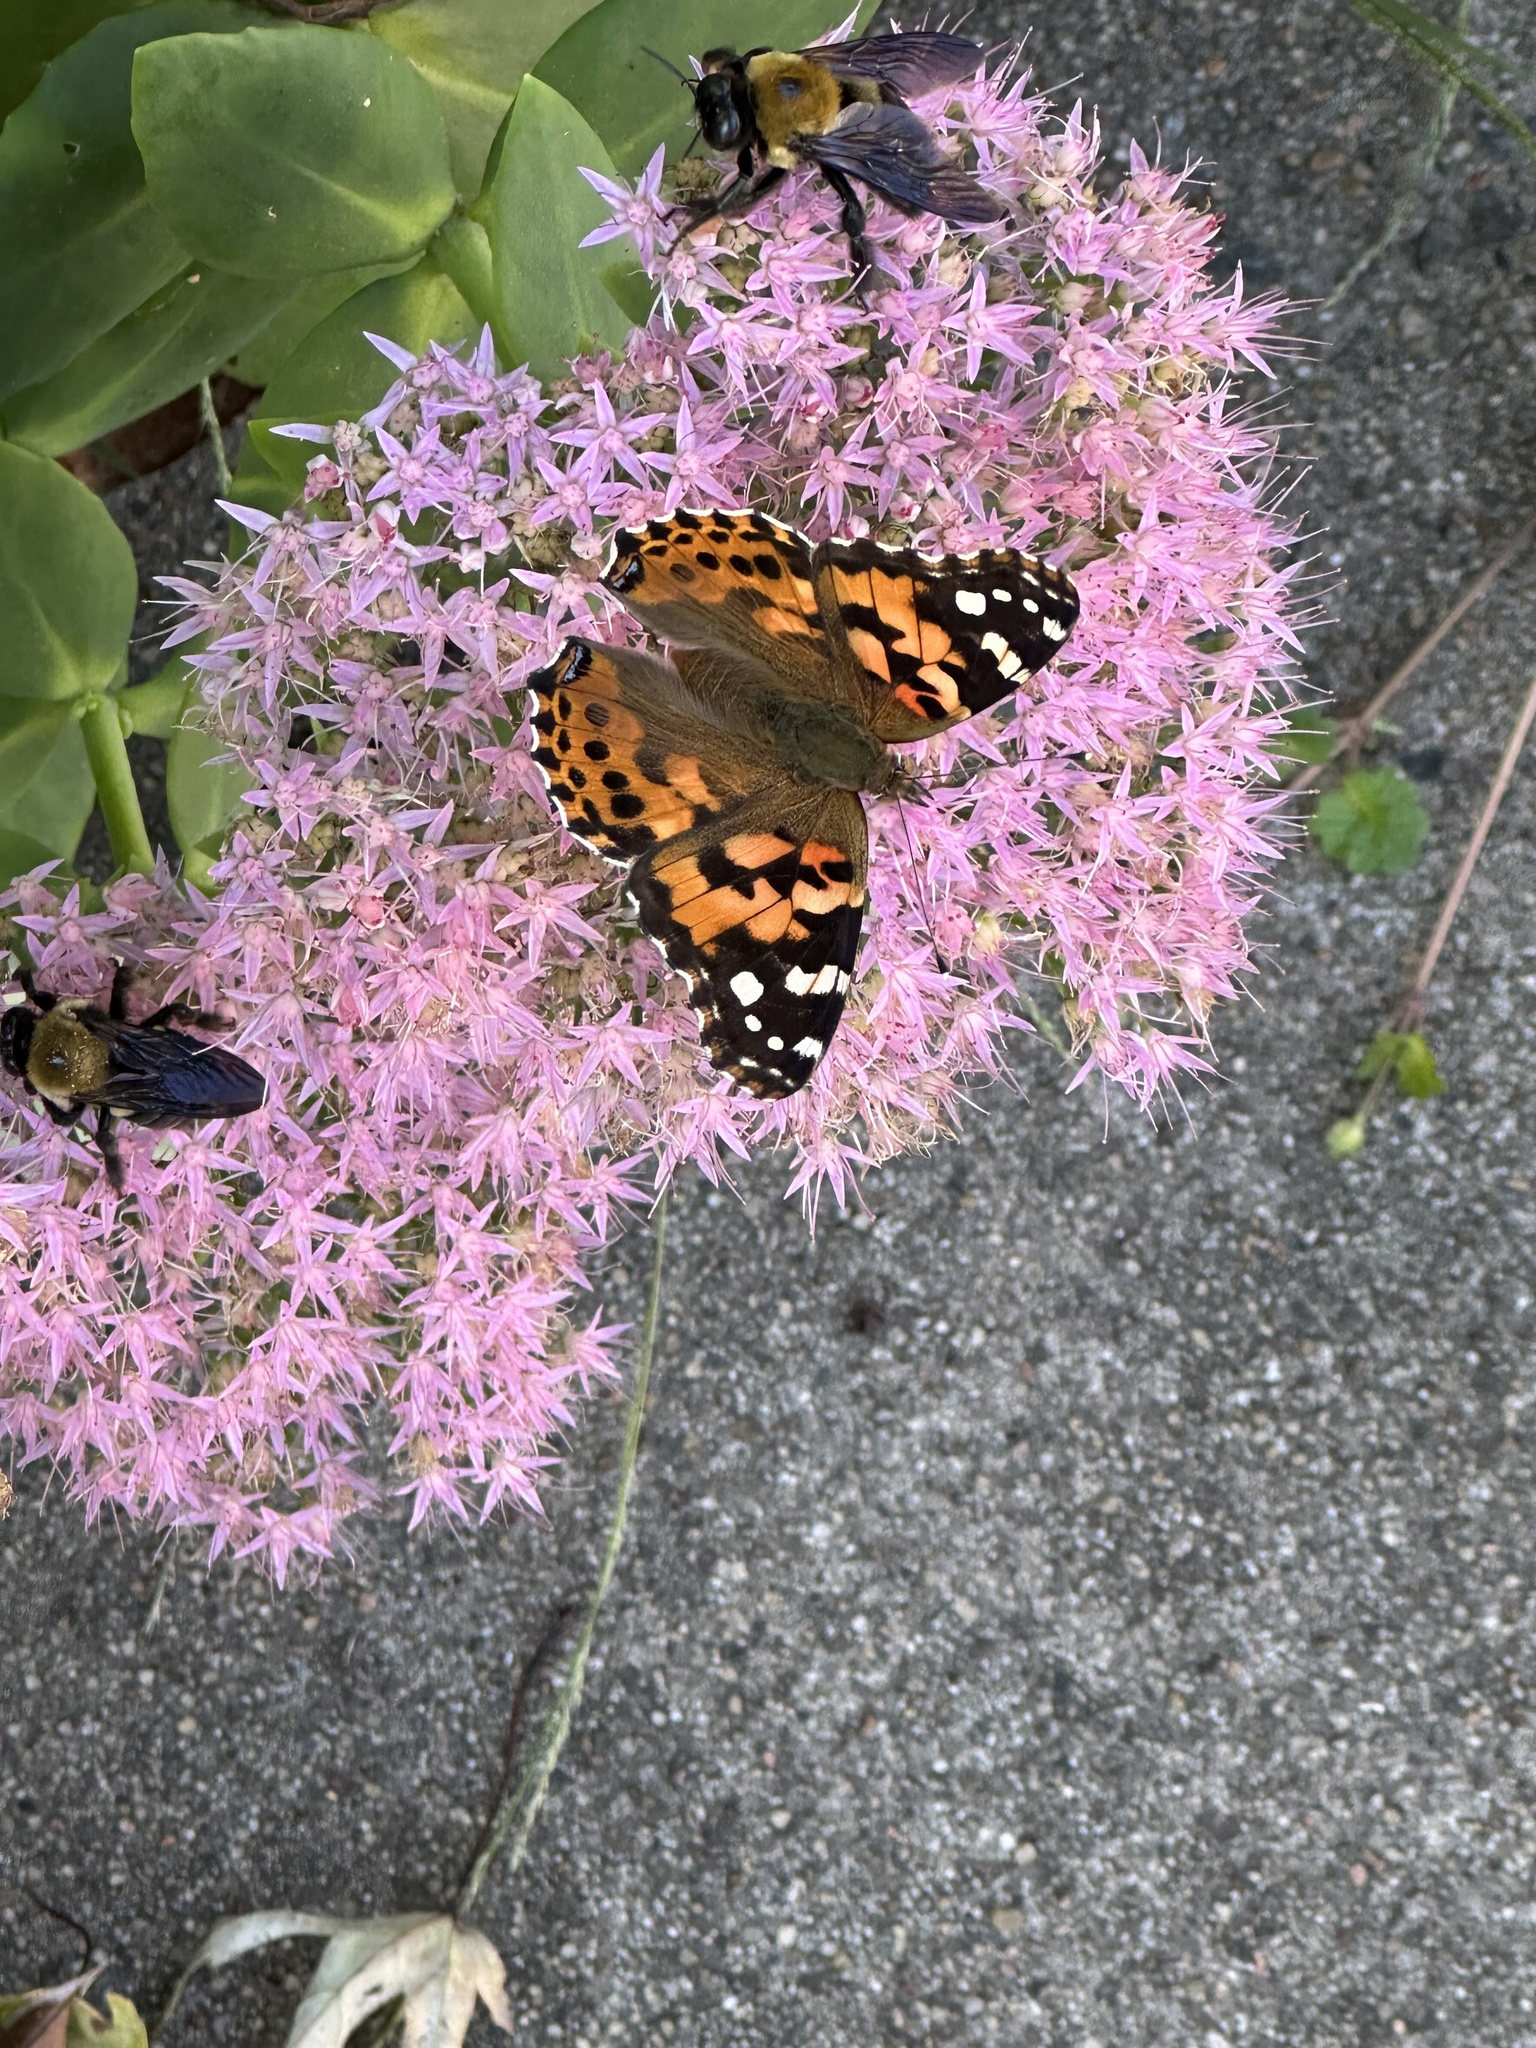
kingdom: Animalia
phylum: Arthropoda
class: Insecta
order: Lepidoptera
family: Nymphalidae
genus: Vanessa
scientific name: Vanessa cardui
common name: Painted lady
